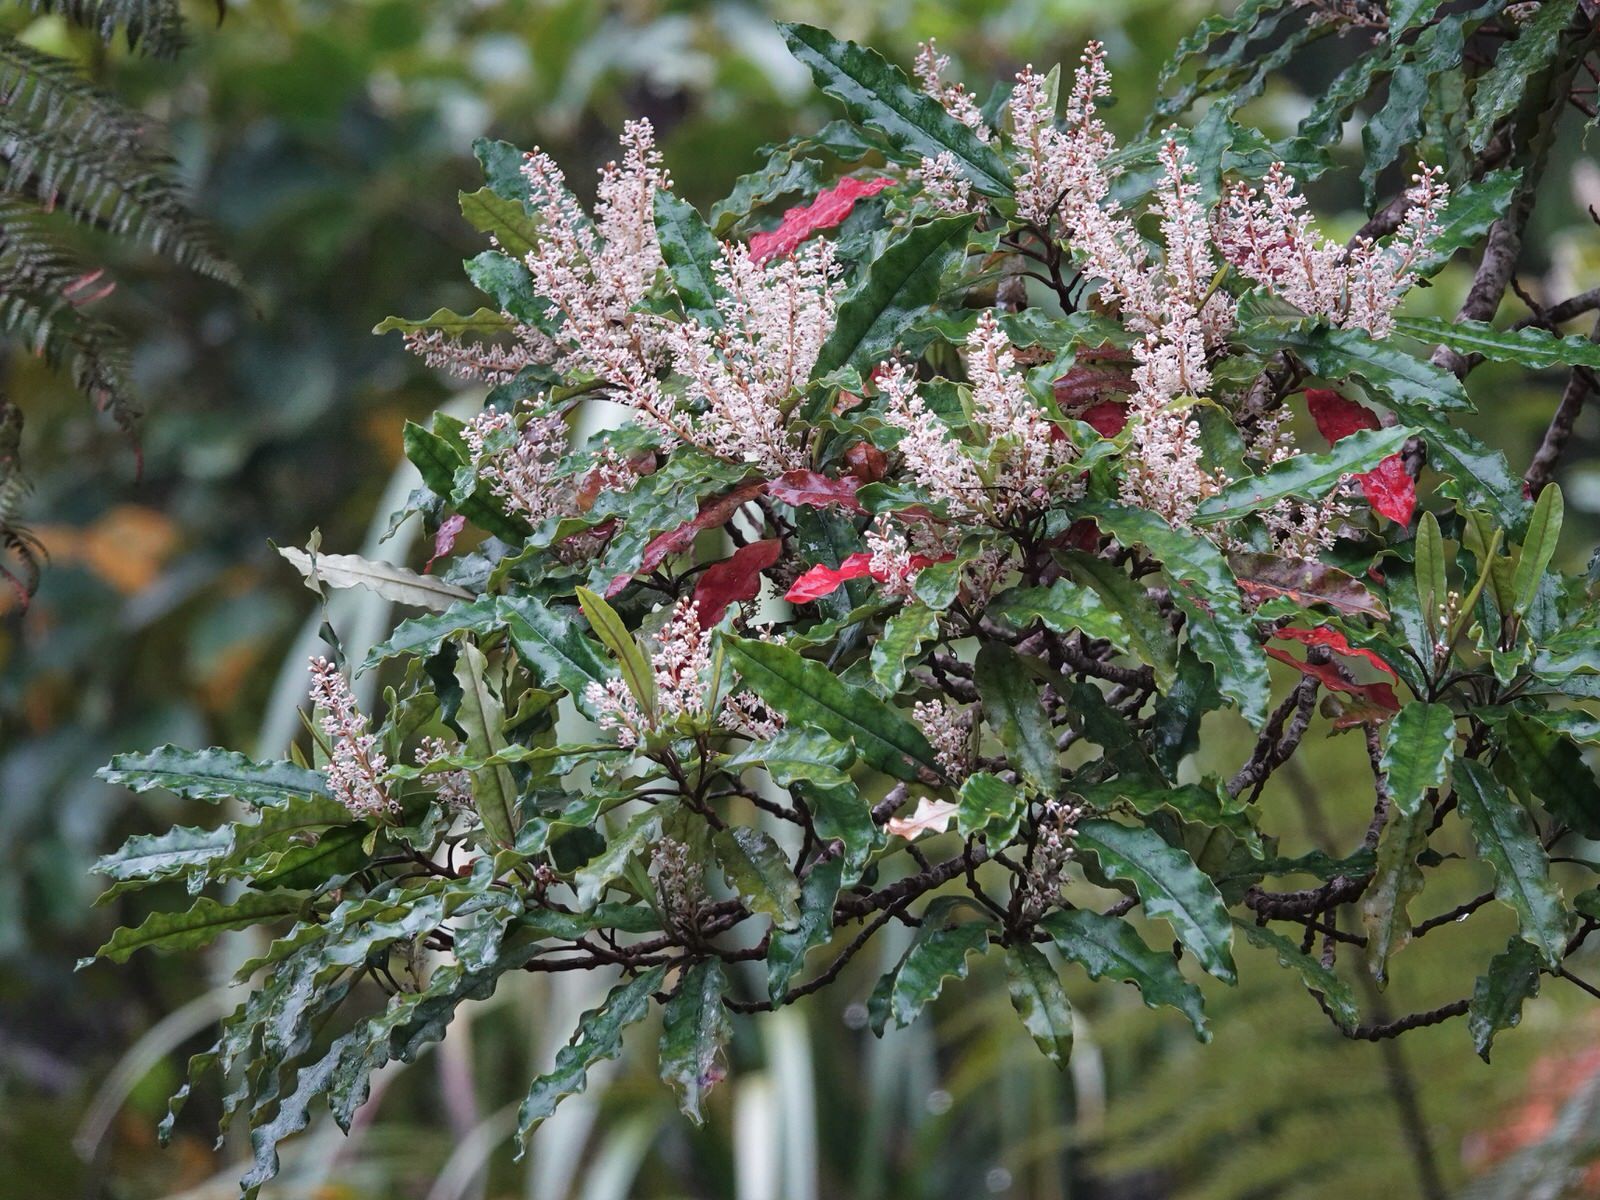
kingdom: Plantae
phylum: Tracheophyta
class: Magnoliopsida
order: Paracryphiales
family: Paracryphiaceae
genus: Quintinia
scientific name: Quintinia serrata
